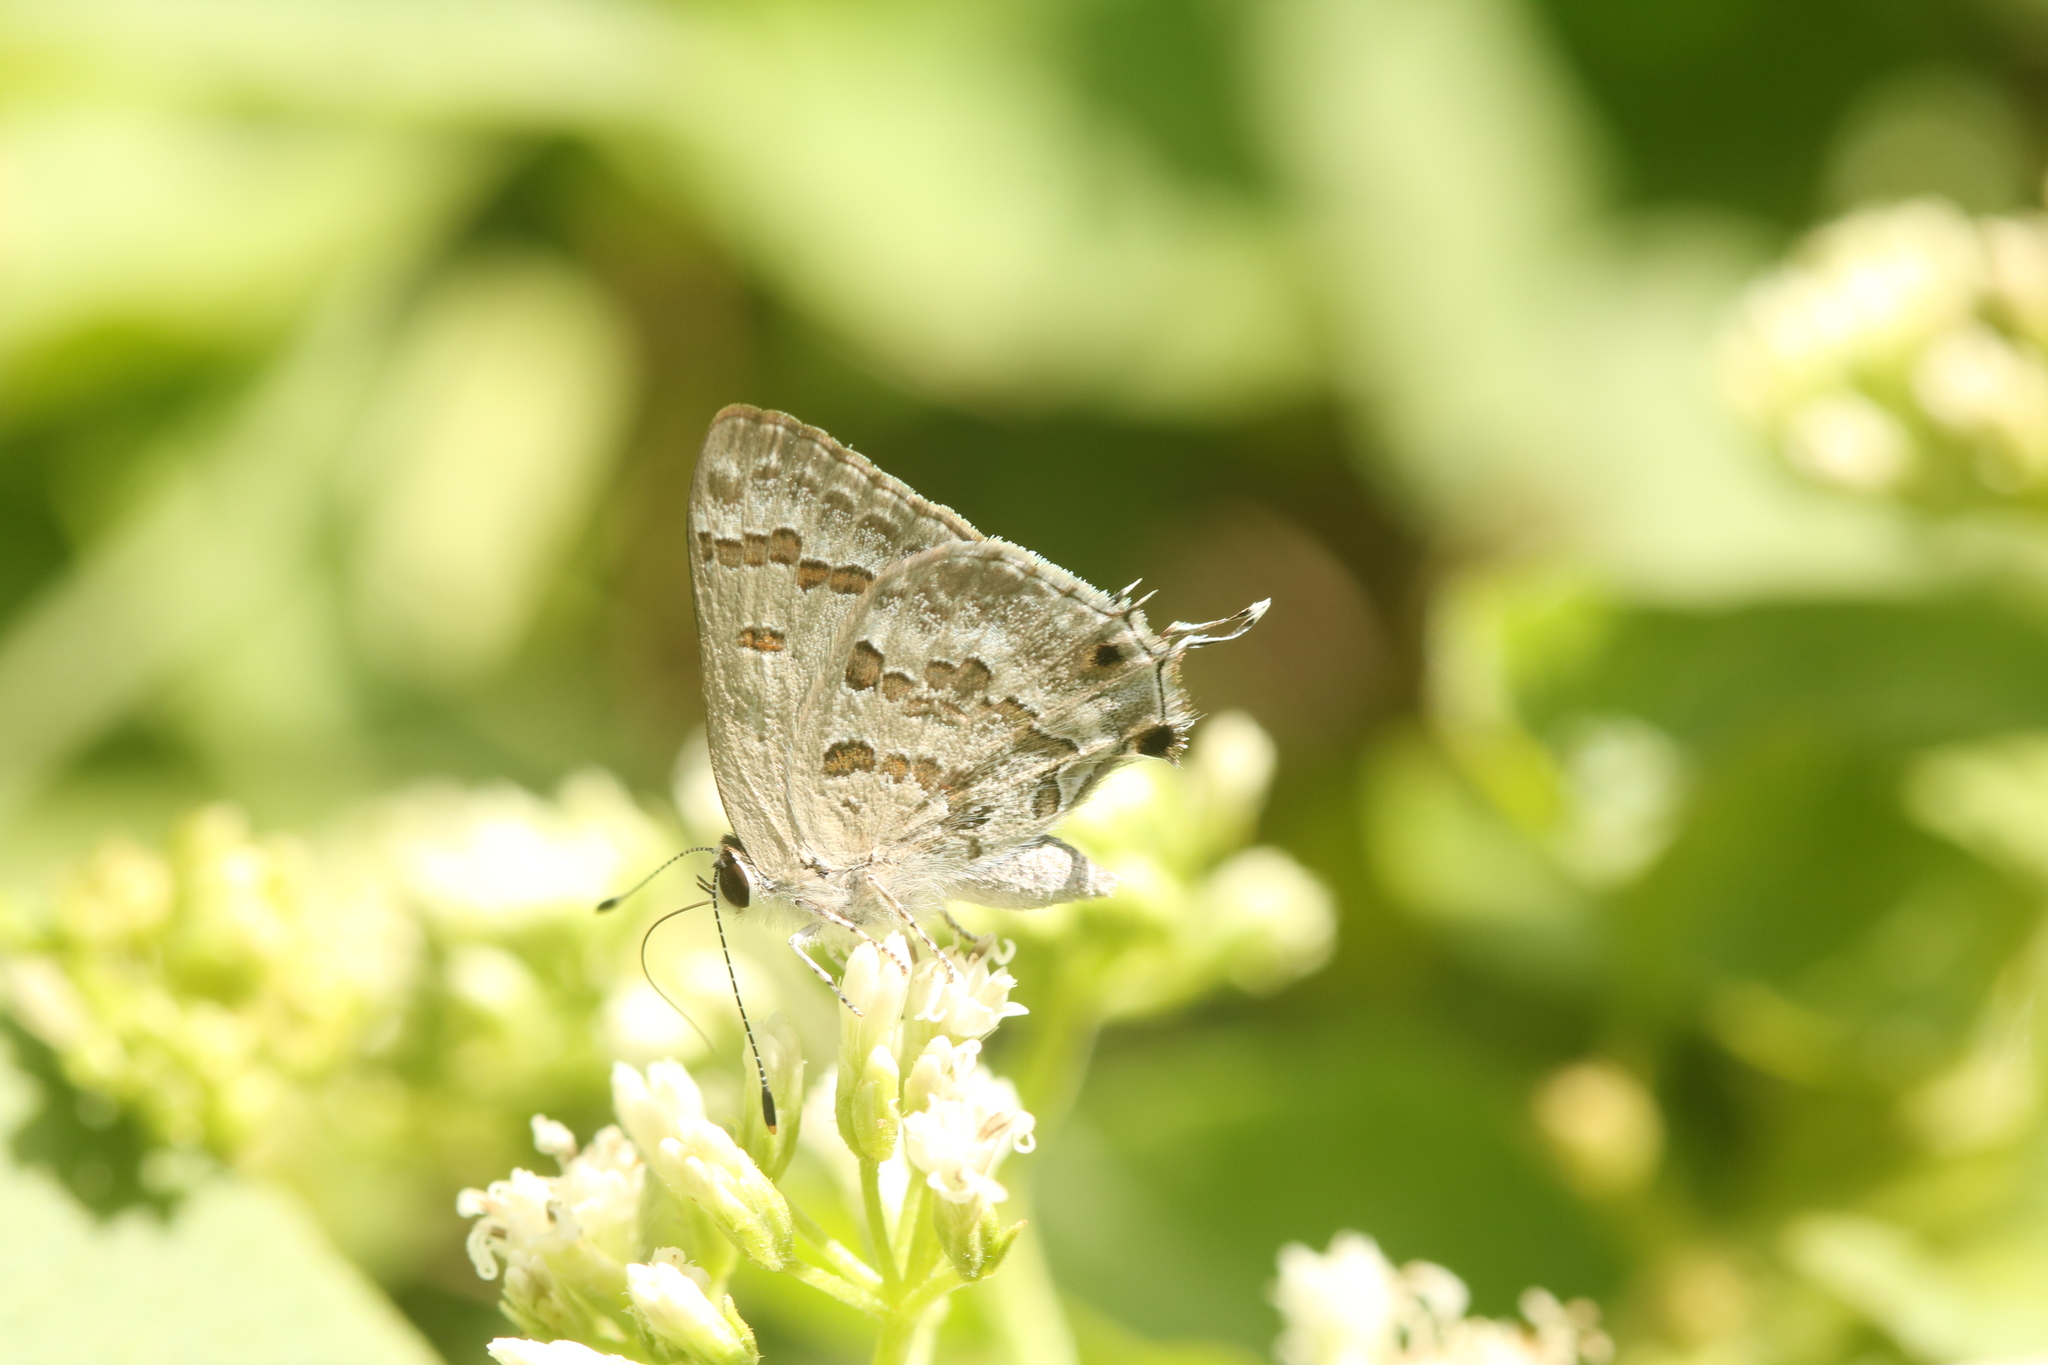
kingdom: Animalia
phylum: Arthropoda
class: Insecta
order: Lepidoptera
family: Lycaenidae
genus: Strymon
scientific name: Strymon lucena
